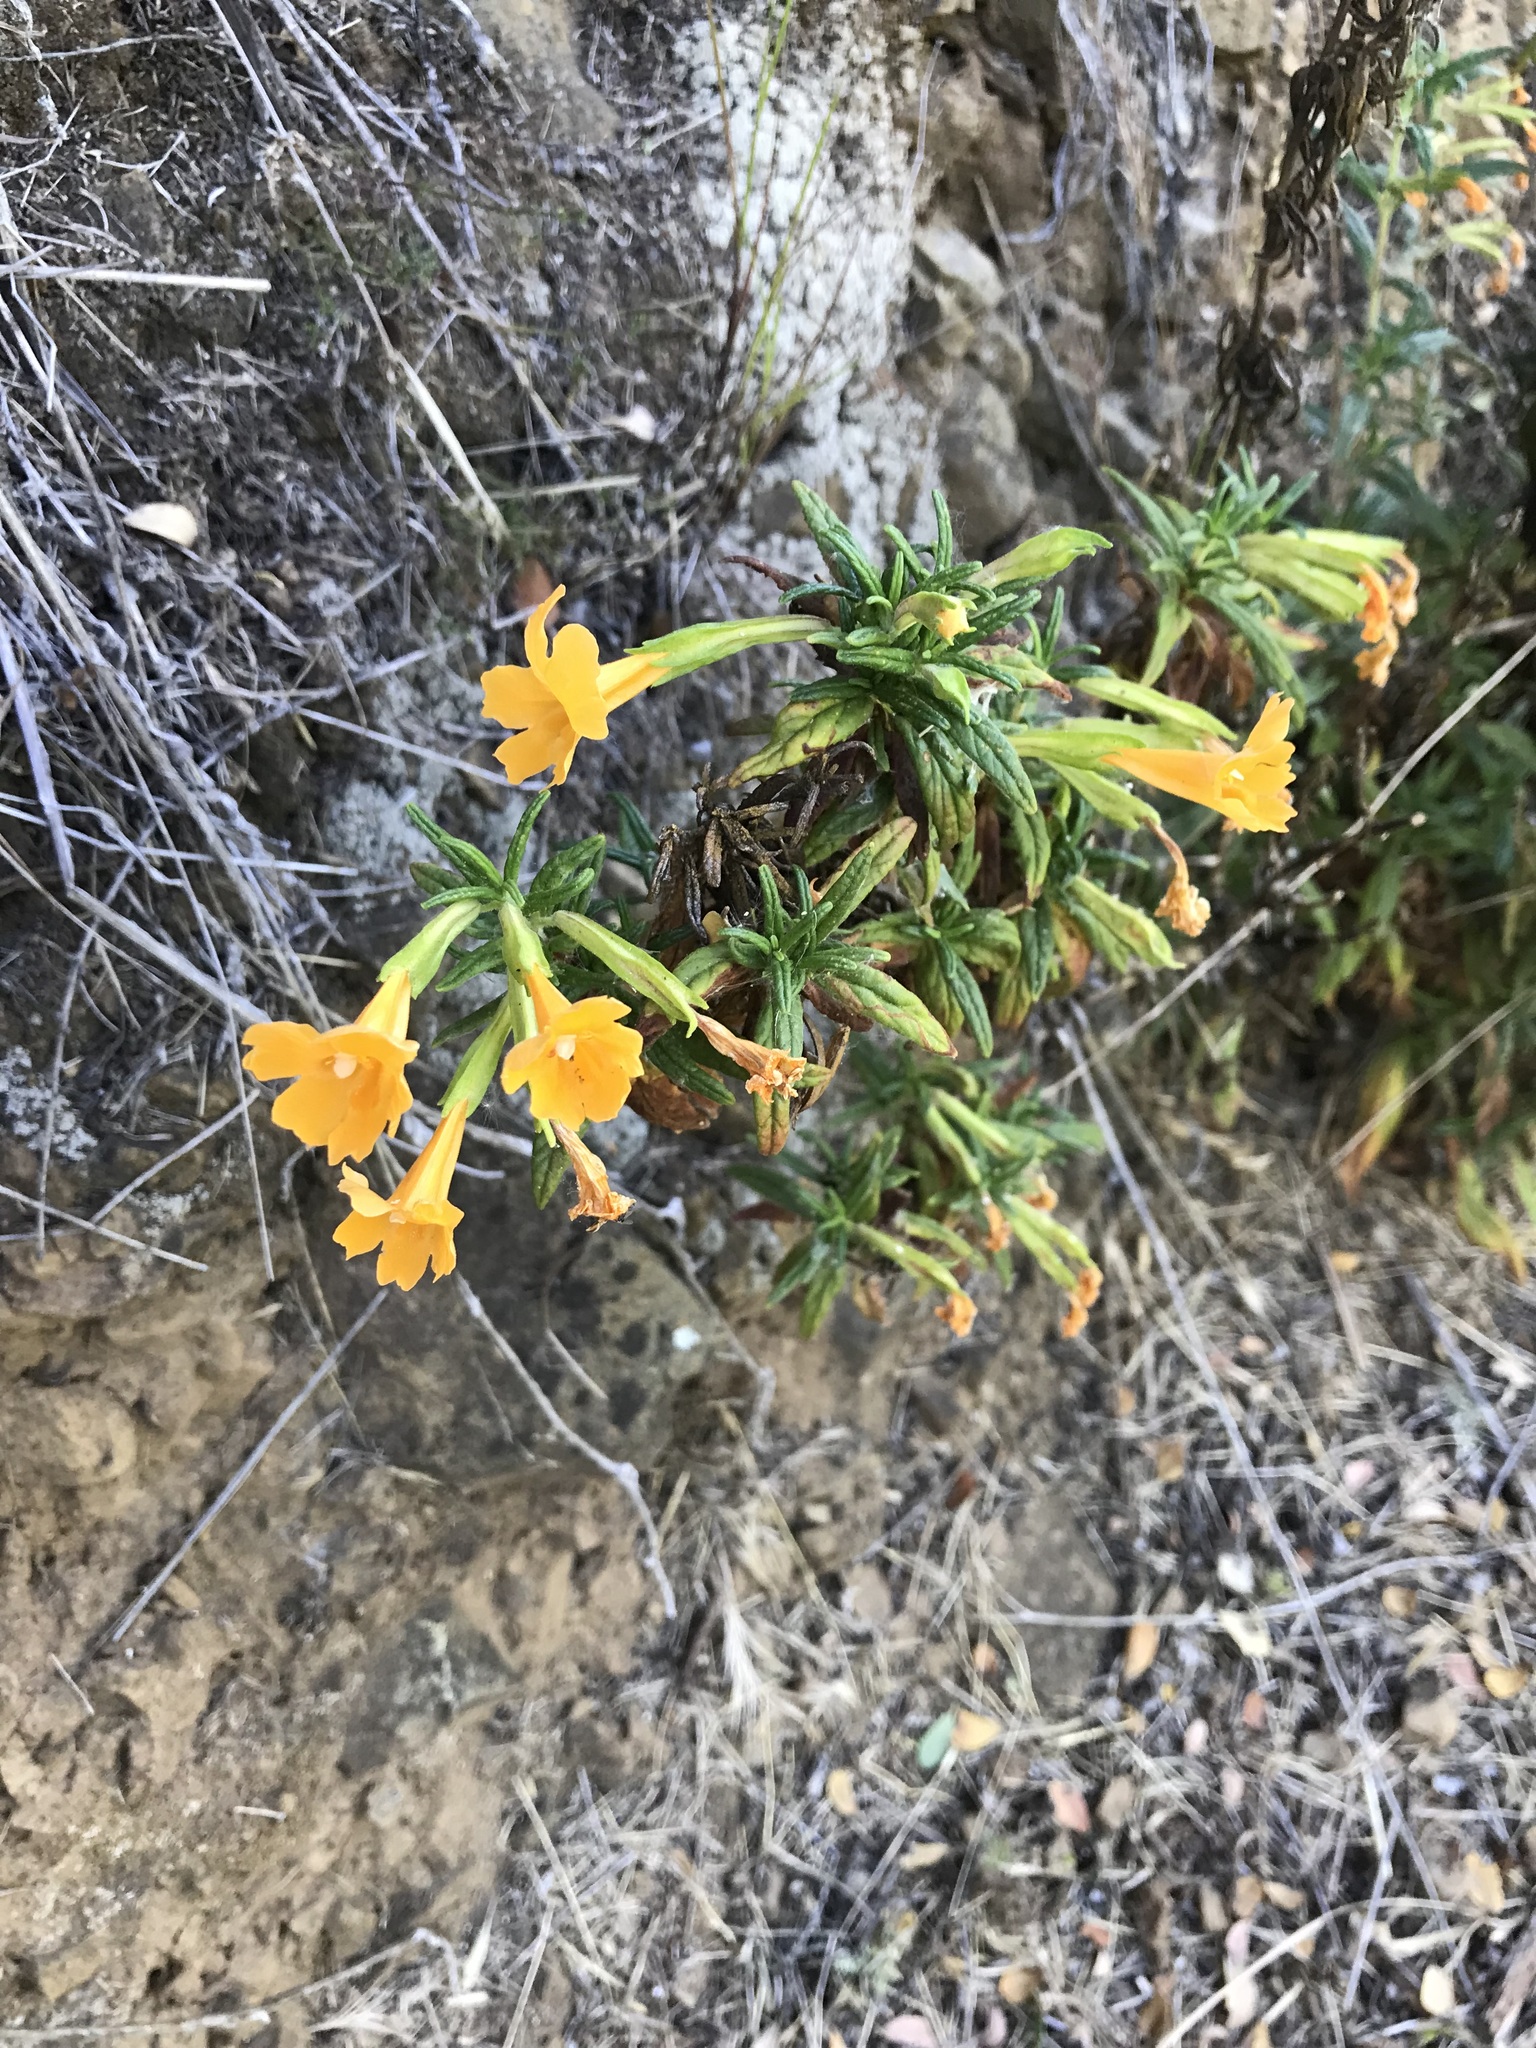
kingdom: Plantae
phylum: Tracheophyta
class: Magnoliopsida
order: Lamiales
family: Phrymaceae
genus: Diplacus
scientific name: Diplacus aurantiacus
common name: Bush monkey-flower
